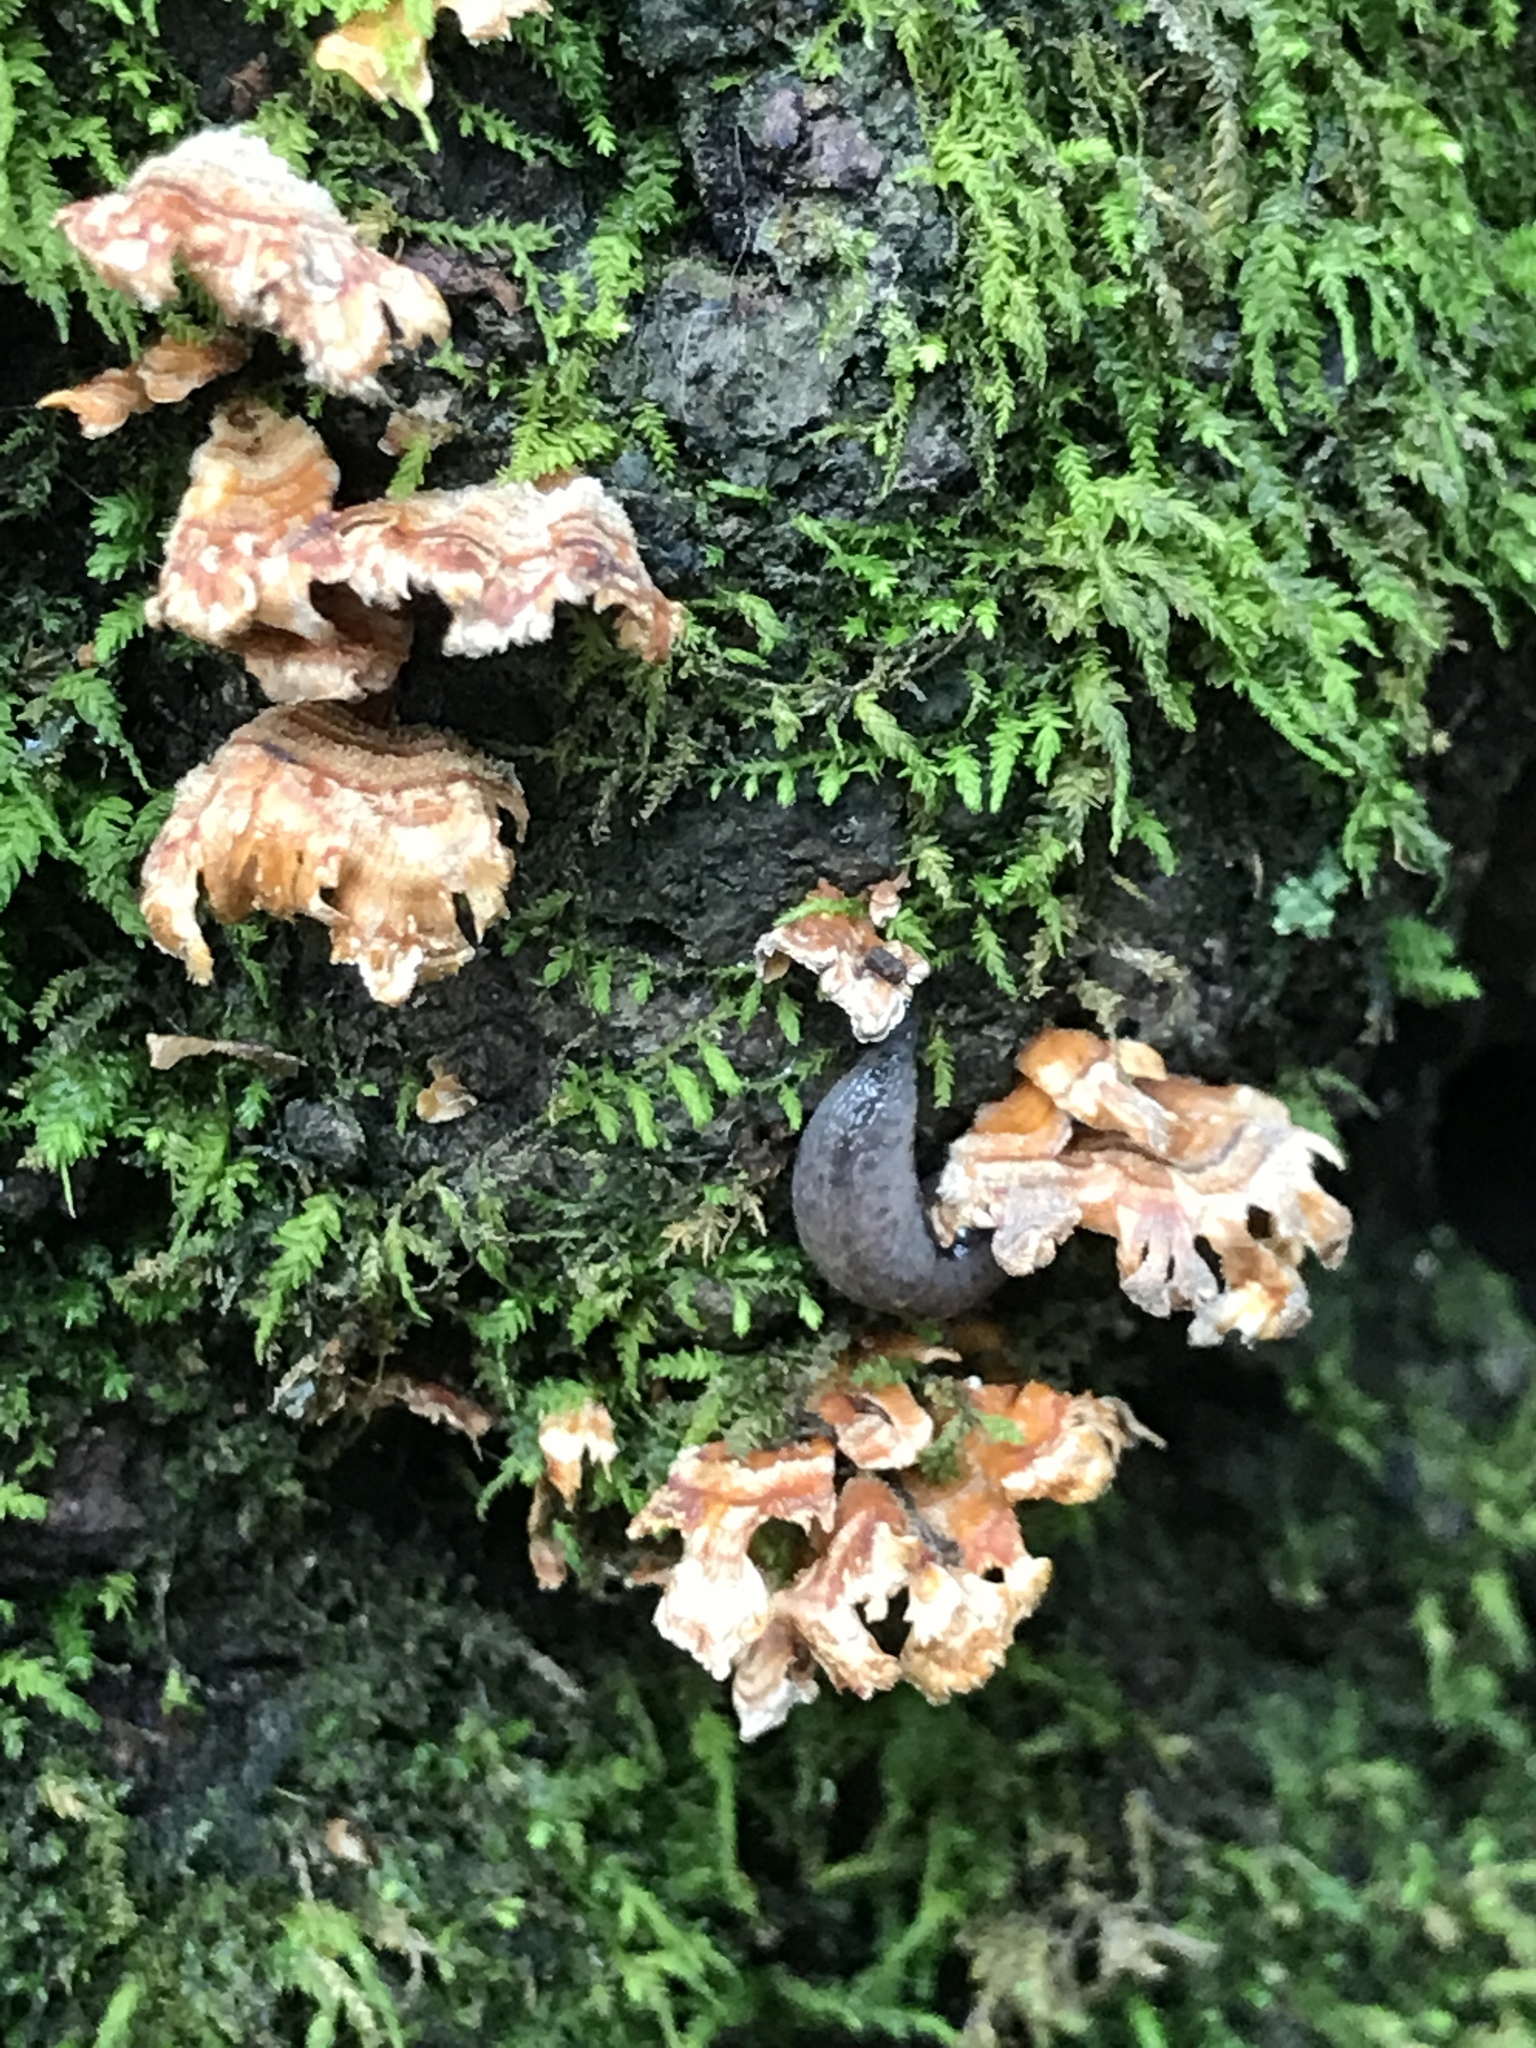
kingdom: Fungi
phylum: Basidiomycota
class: Agaricomycetes
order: Russulales
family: Stereaceae
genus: Stereum
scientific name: Stereum complicatum
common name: Crowded parchment
